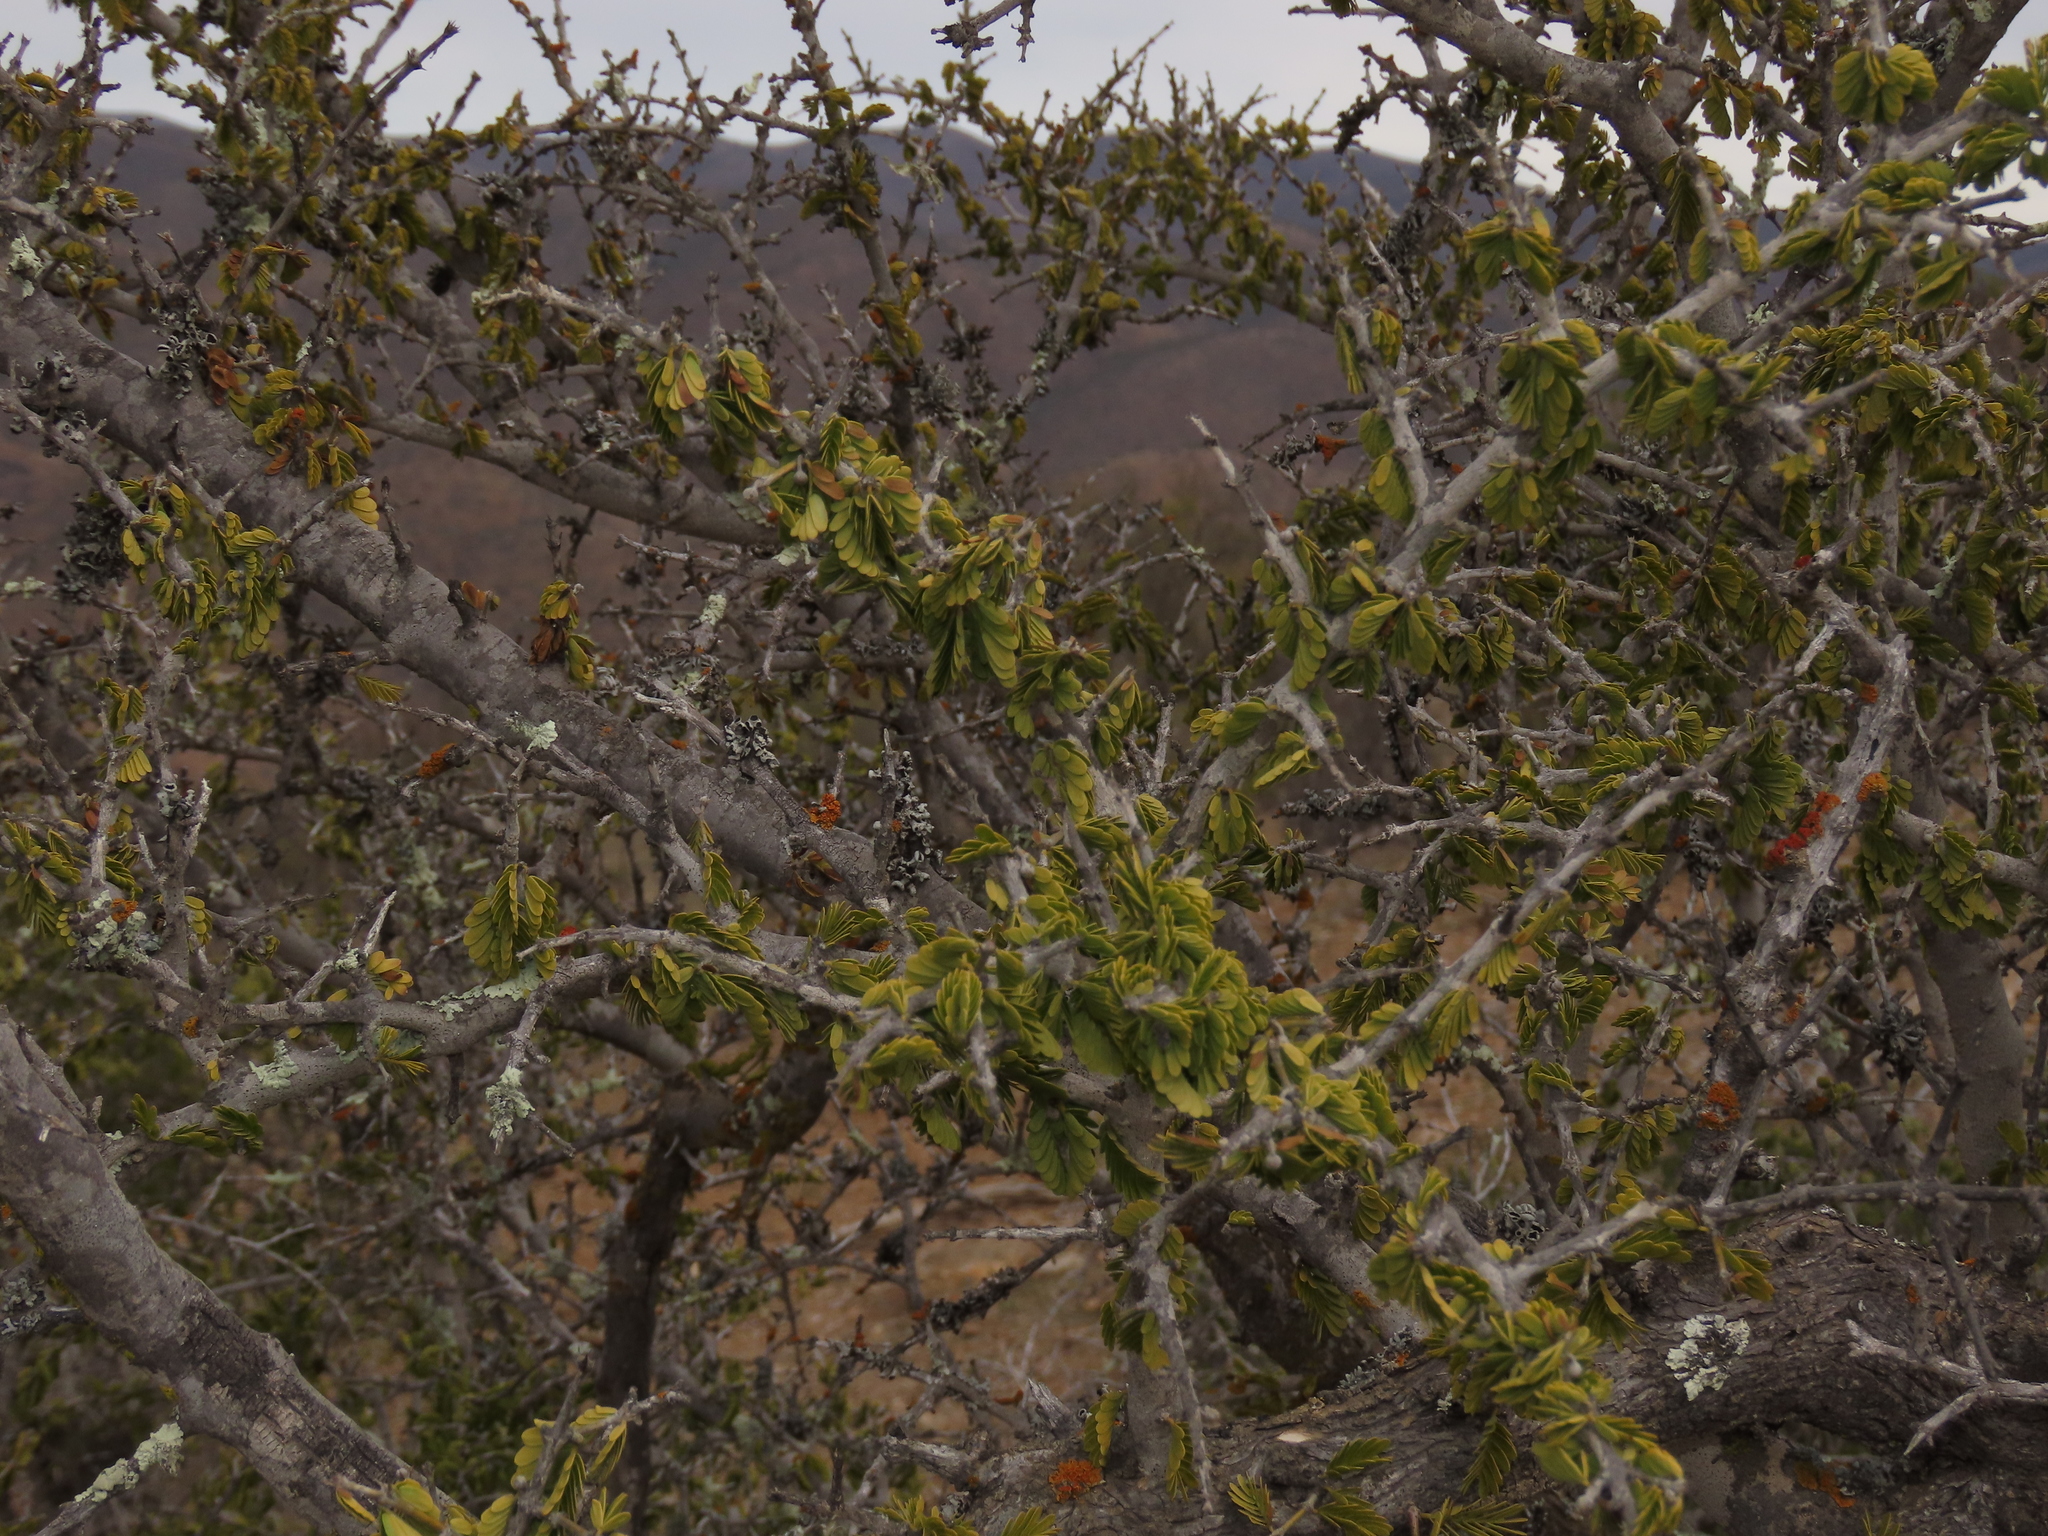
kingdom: Plantae
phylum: Tracheophyta
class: Magnoliopsida
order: Zygophyllales
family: Zygophyllaceae
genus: Porlieria
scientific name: Porlieria chilensis
